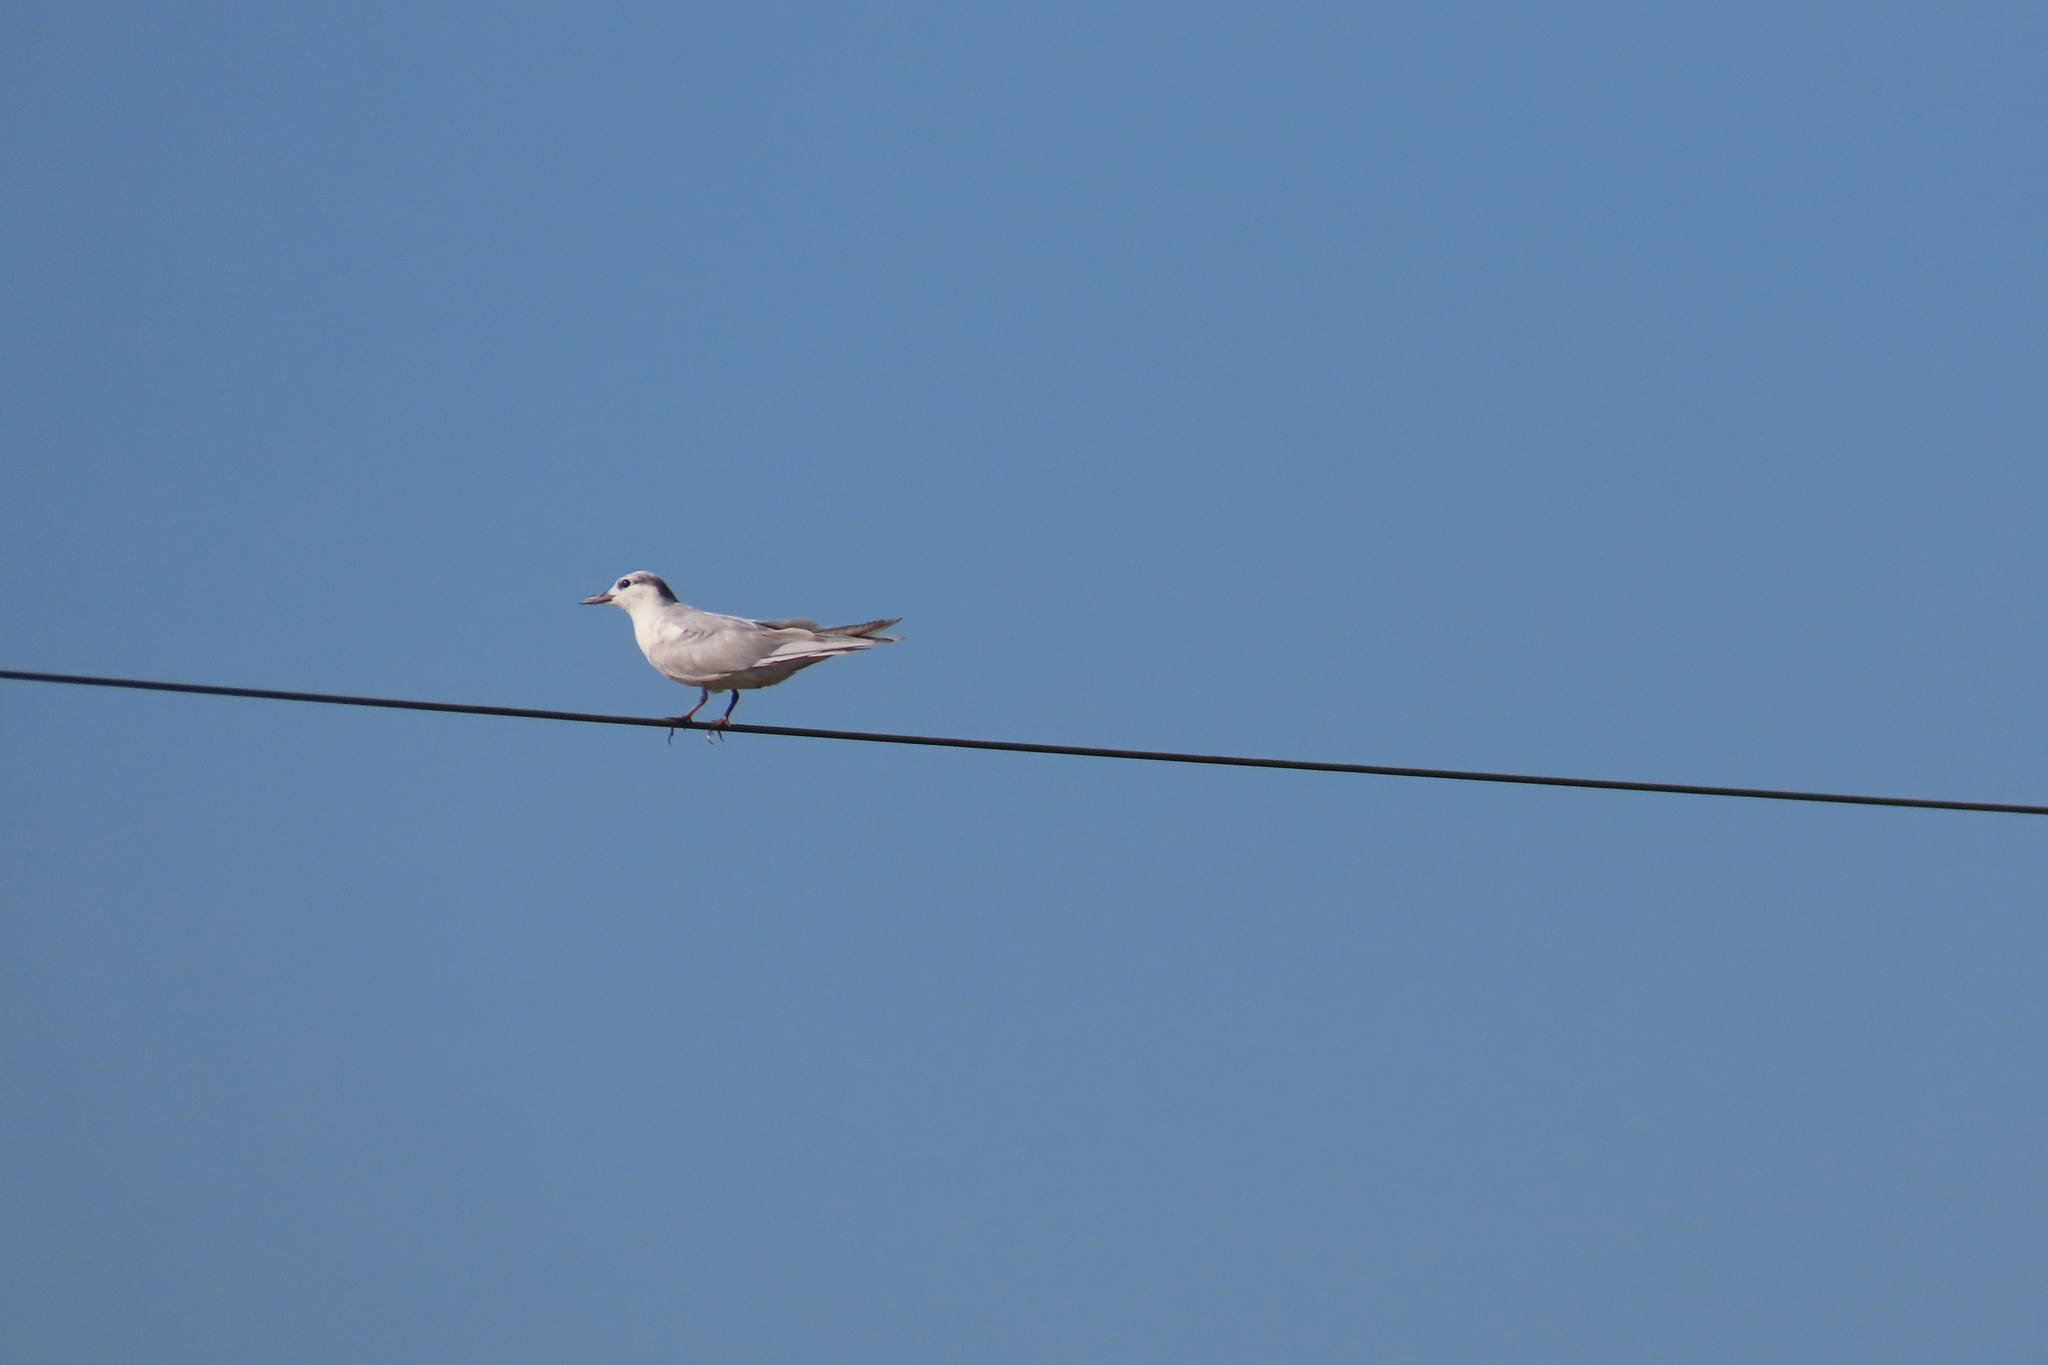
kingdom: Animalia
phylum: Chordata
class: Aves
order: Charadriiformes
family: Laridae
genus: Chlidonias
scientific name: Chlidonias hybrida
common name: Whiskered tern
